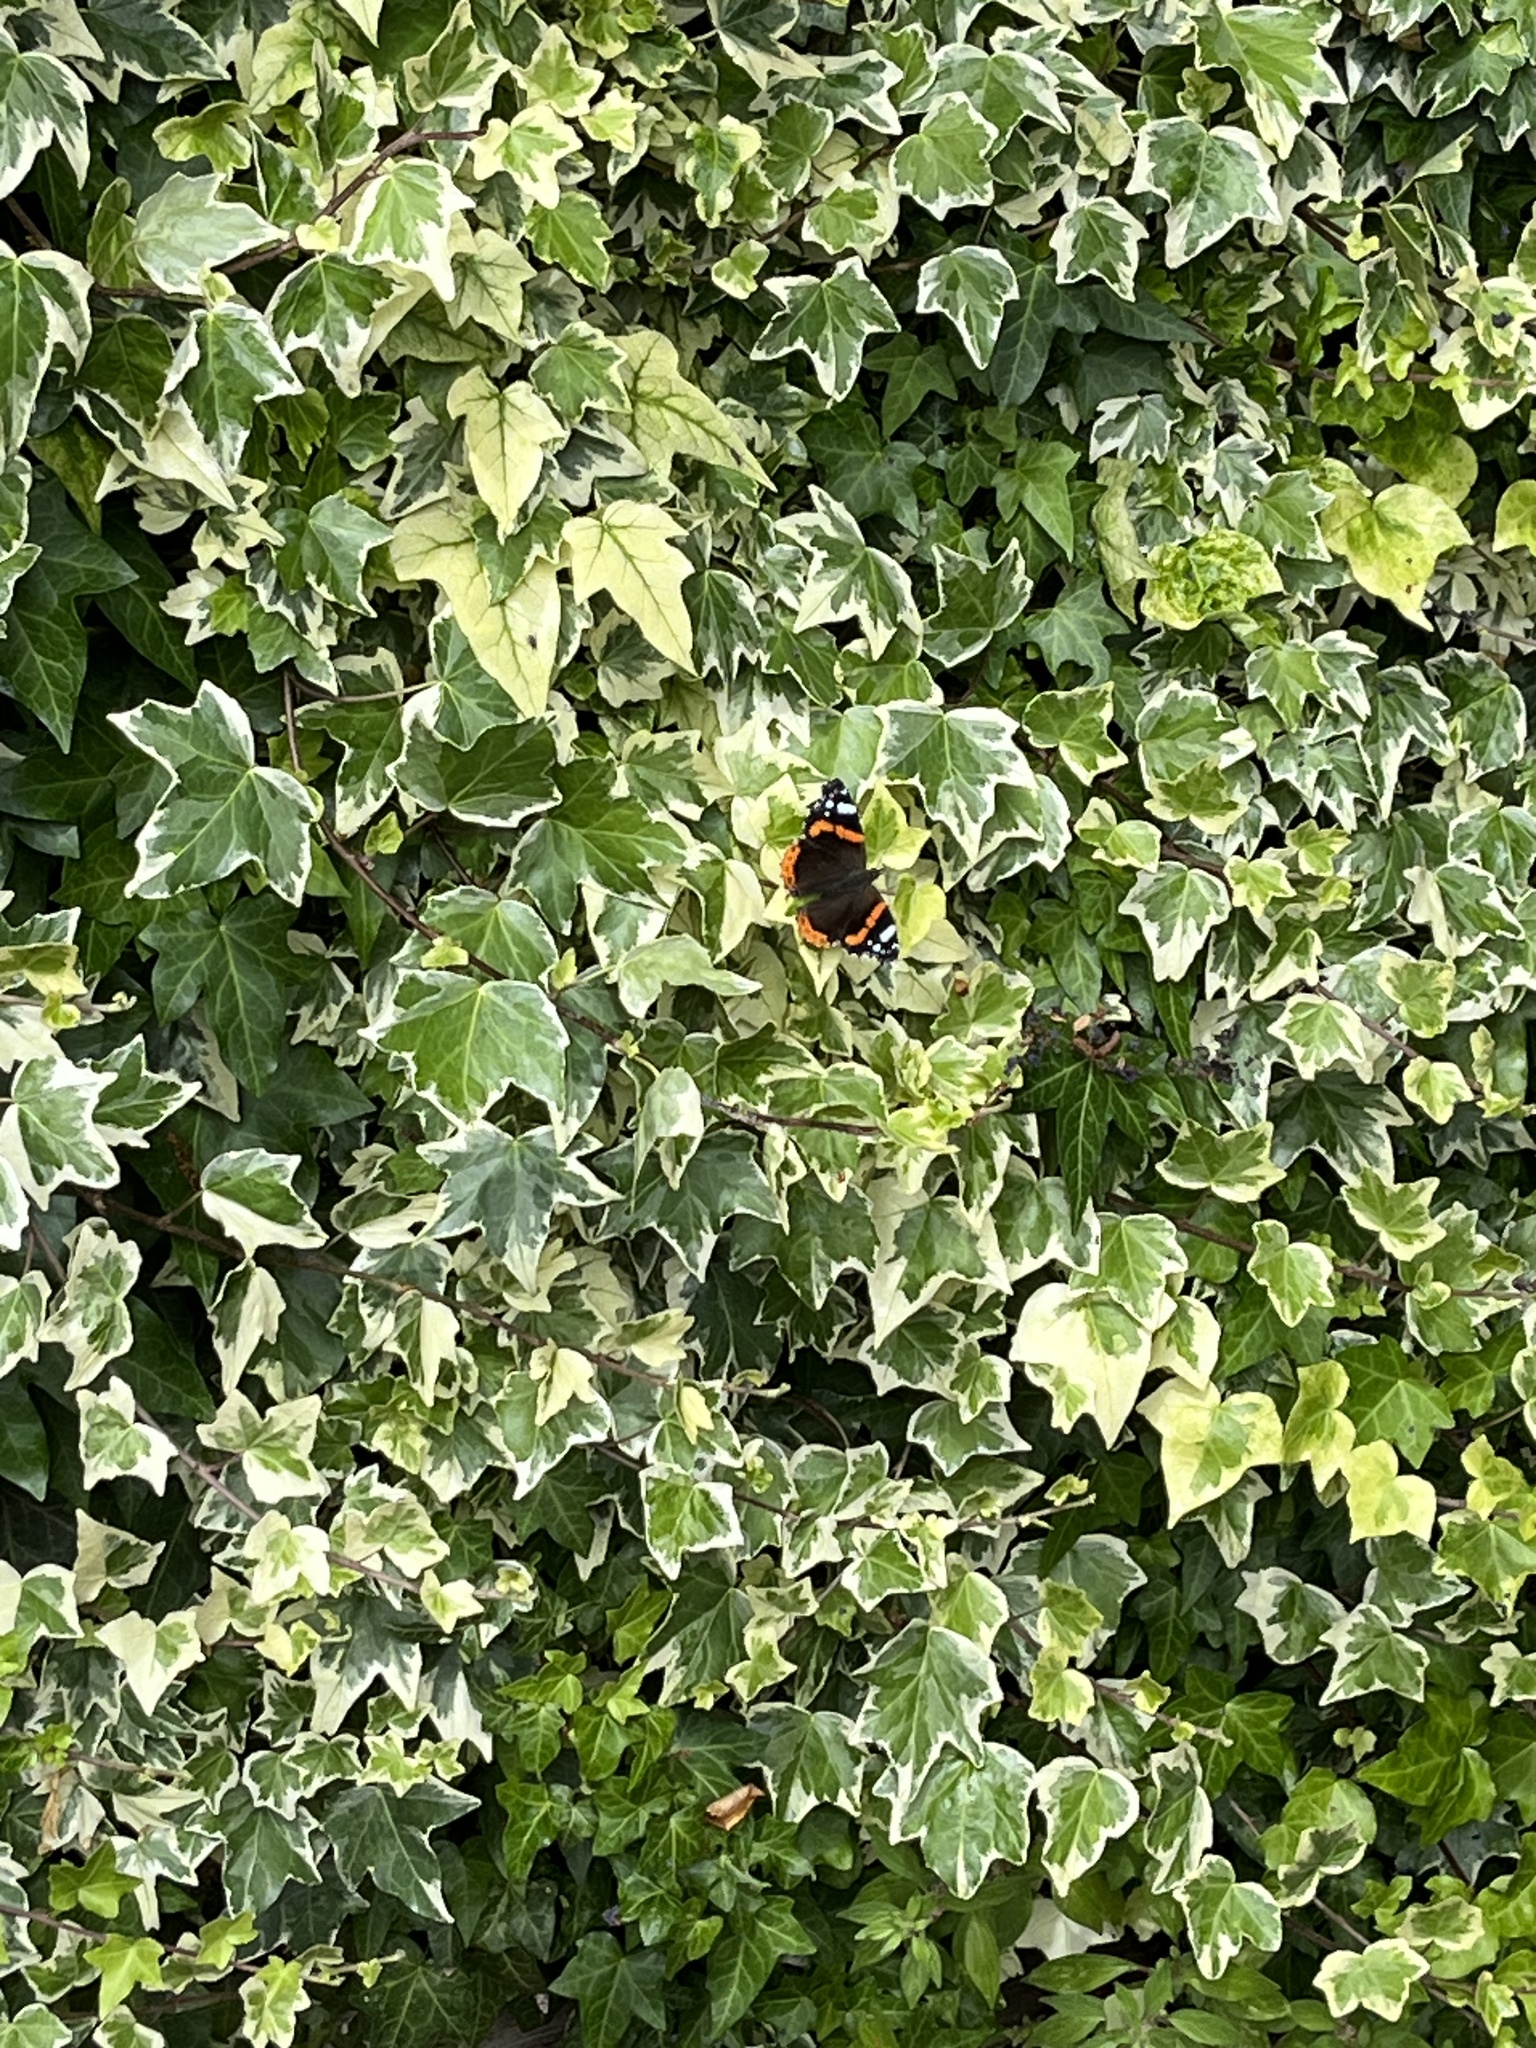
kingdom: Animalia
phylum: Arthropoda
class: Insecta
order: Lepidoptera
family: Nymphalidae
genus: Vanessa
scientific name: Vanessa atalanta
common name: Red admiral
